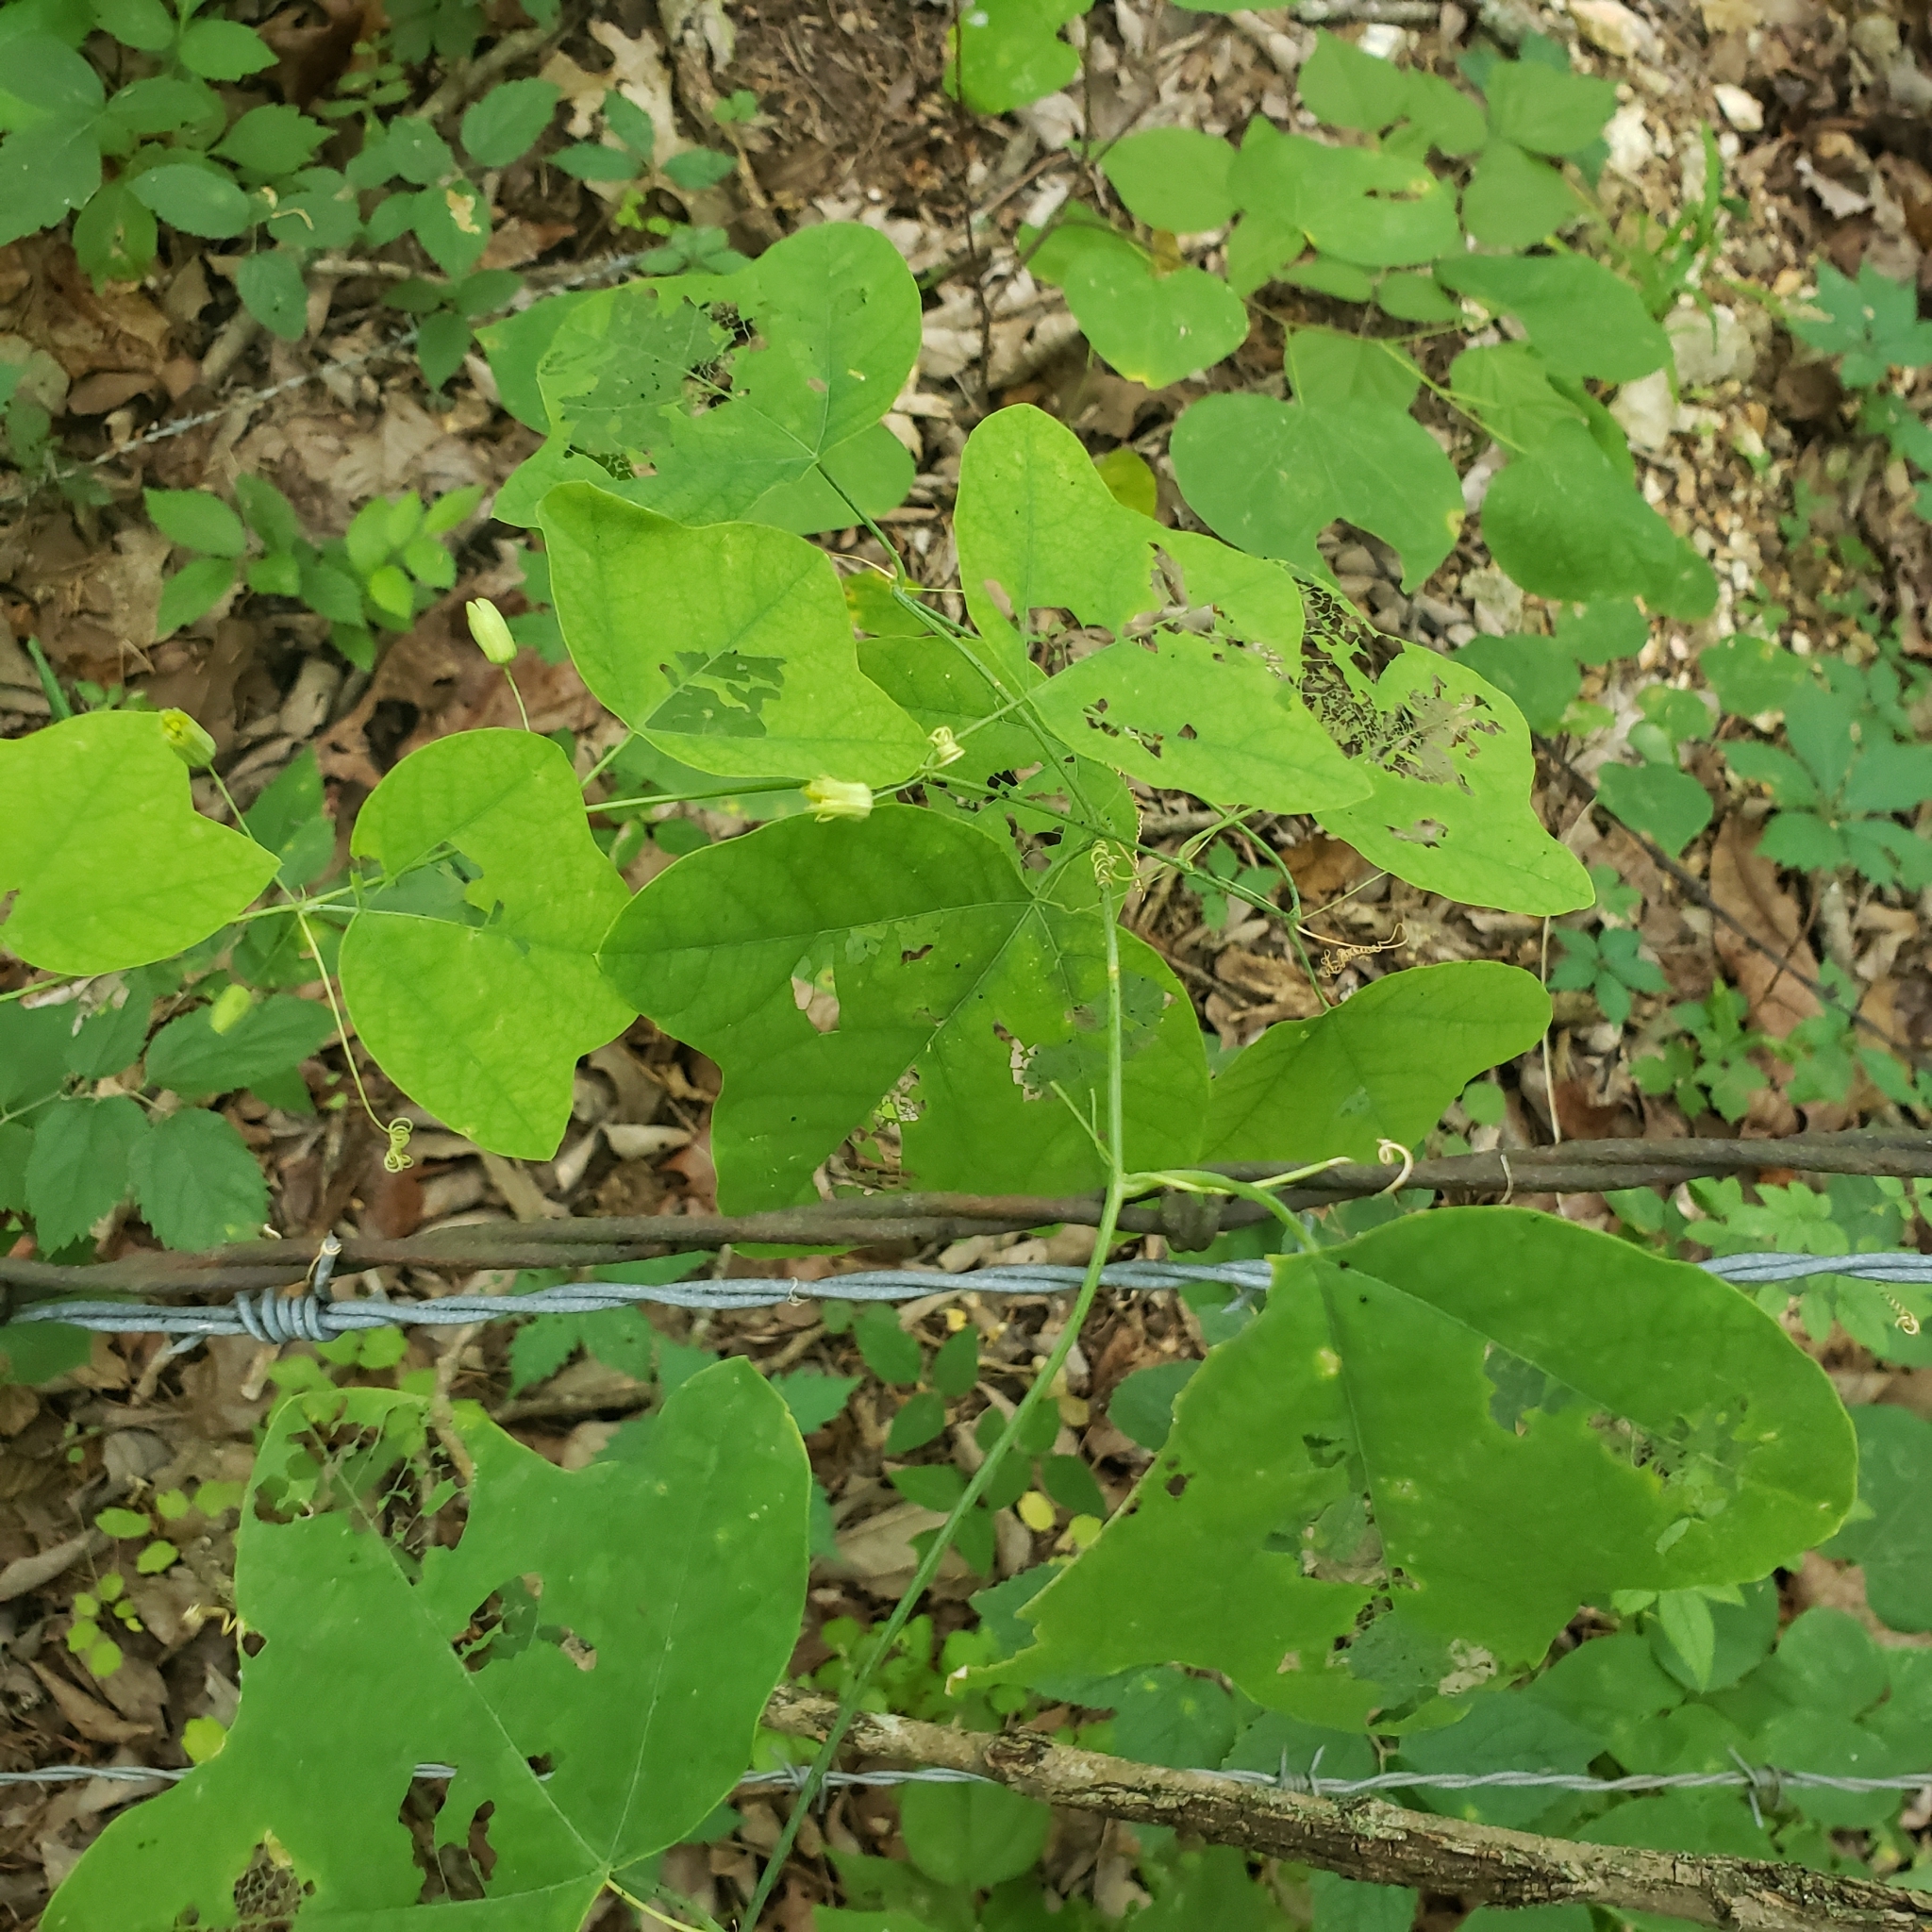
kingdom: Plantae
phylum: Tracheophyta
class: Magnoliopsida
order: Malpighiales
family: Passifloraceae
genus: Passiflora
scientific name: Passiflora lutea
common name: Yellow passionflower
